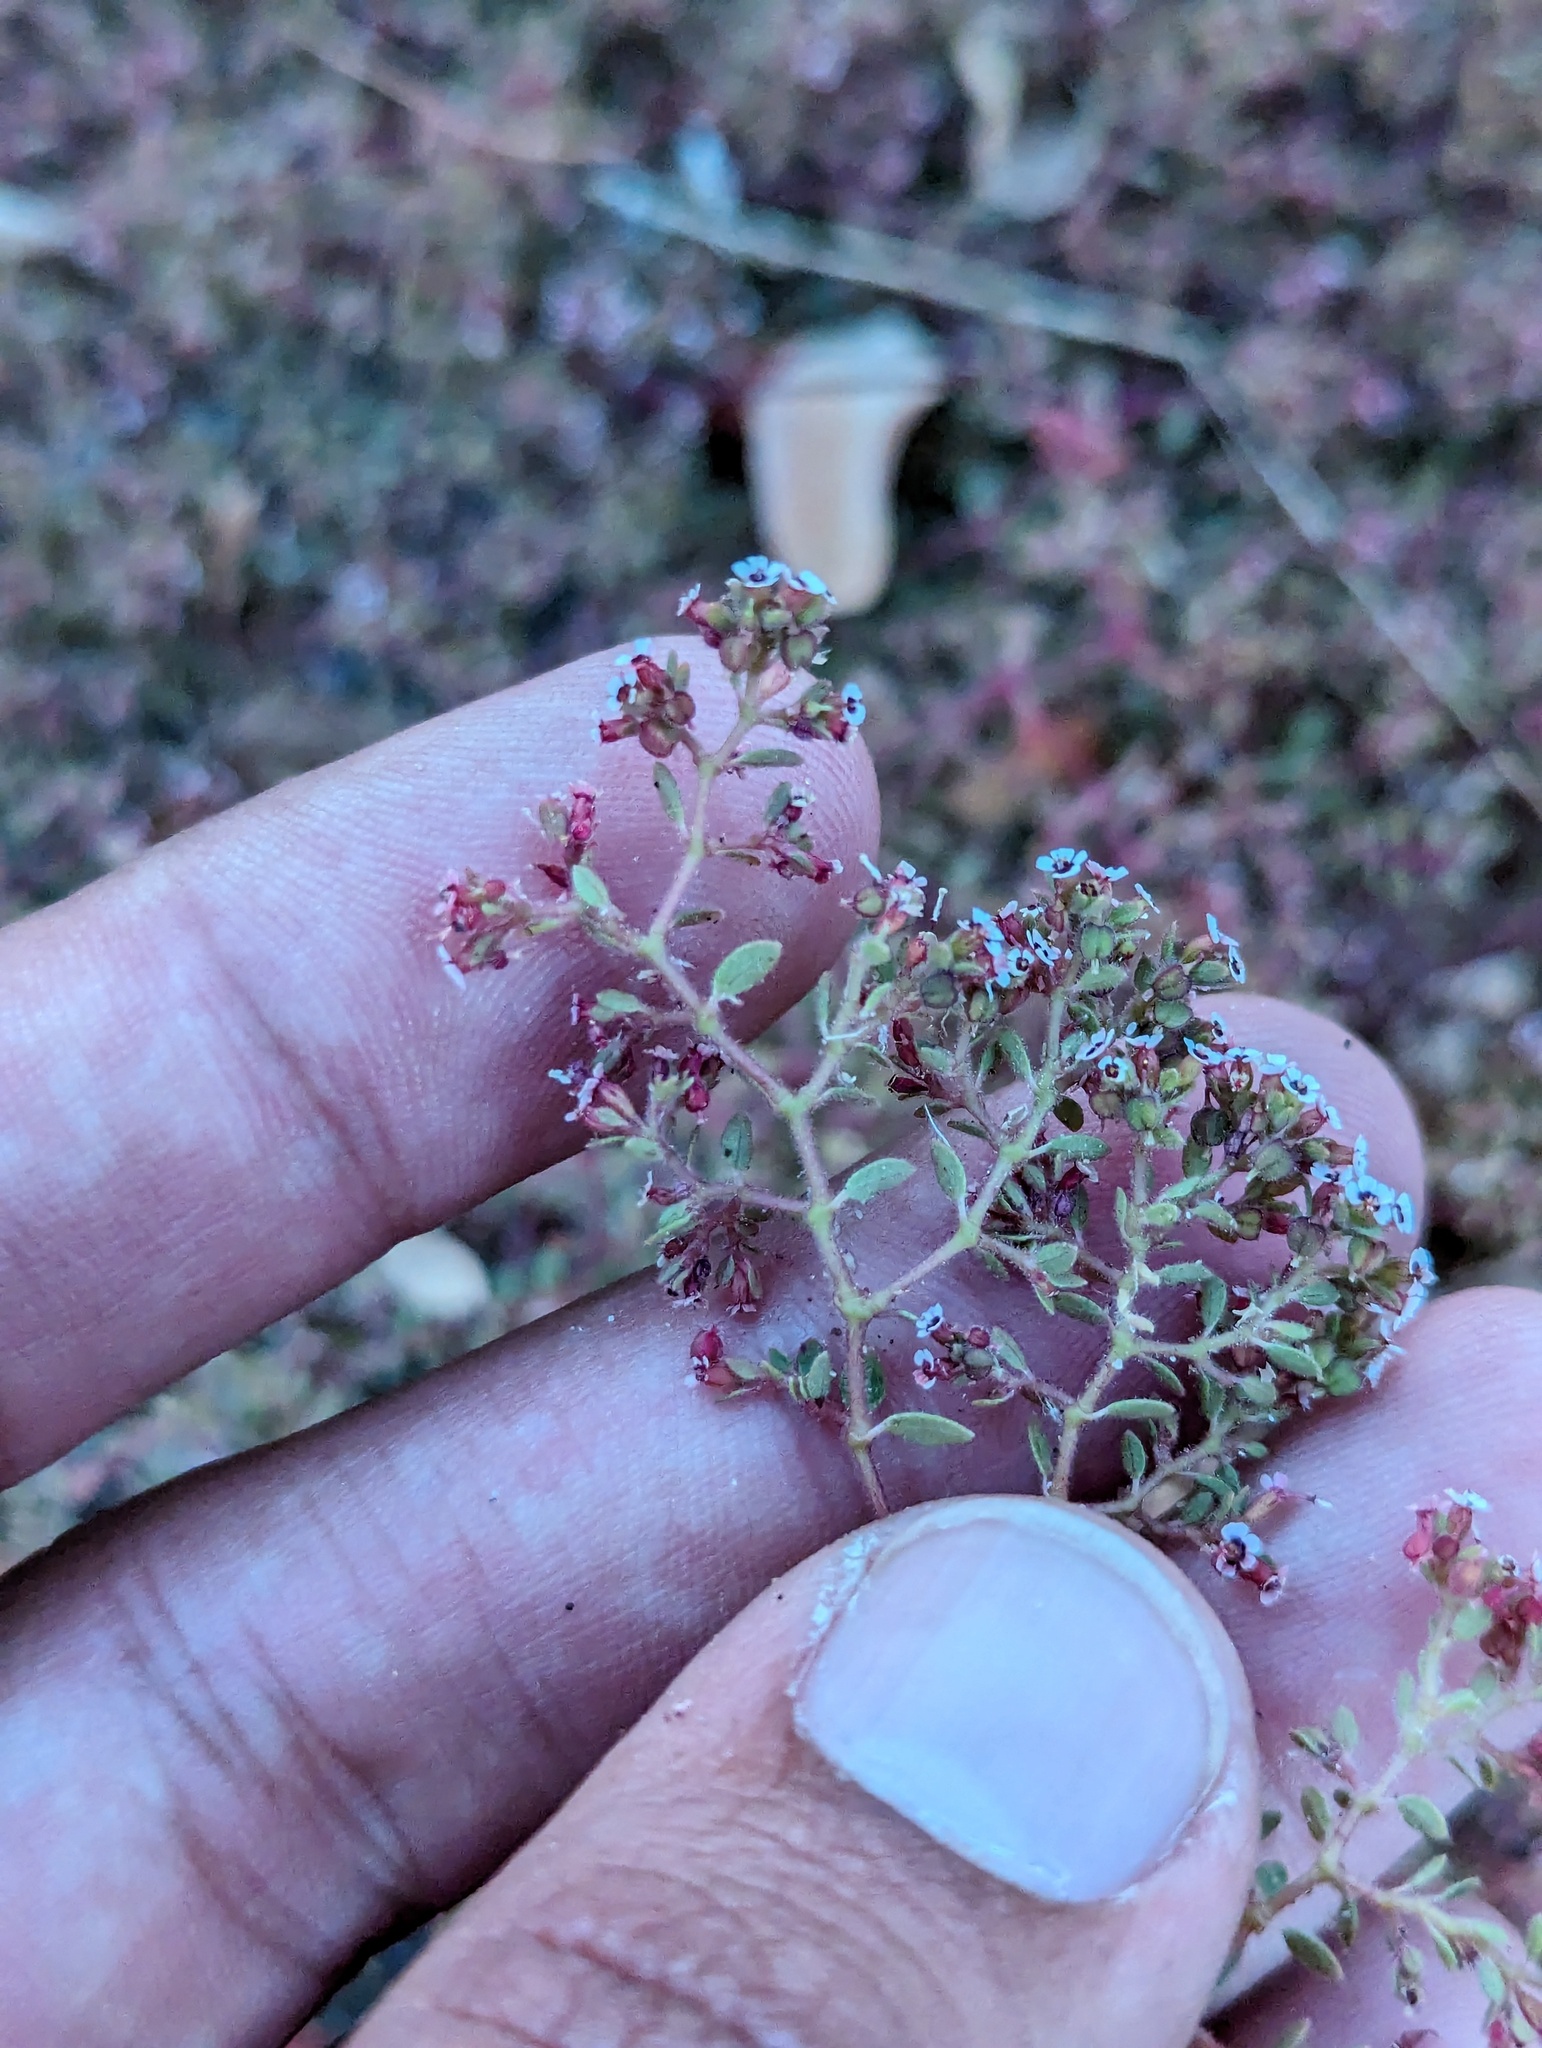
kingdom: Plantae
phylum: Tracheophyta
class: Magnoliopsida
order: Malpighiales
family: Euphorbiaceae
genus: Euphorbia
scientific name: Euphorbia arizonica
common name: Arizona spurge
